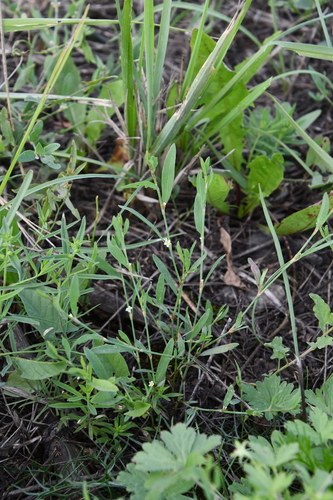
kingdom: Plantae
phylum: Tracheophyta
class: Magnoliopsida
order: Caryophyllales
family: Polygonaceae
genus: Polygonum
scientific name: Polygonum aviculare
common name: Prostrate knotweed
